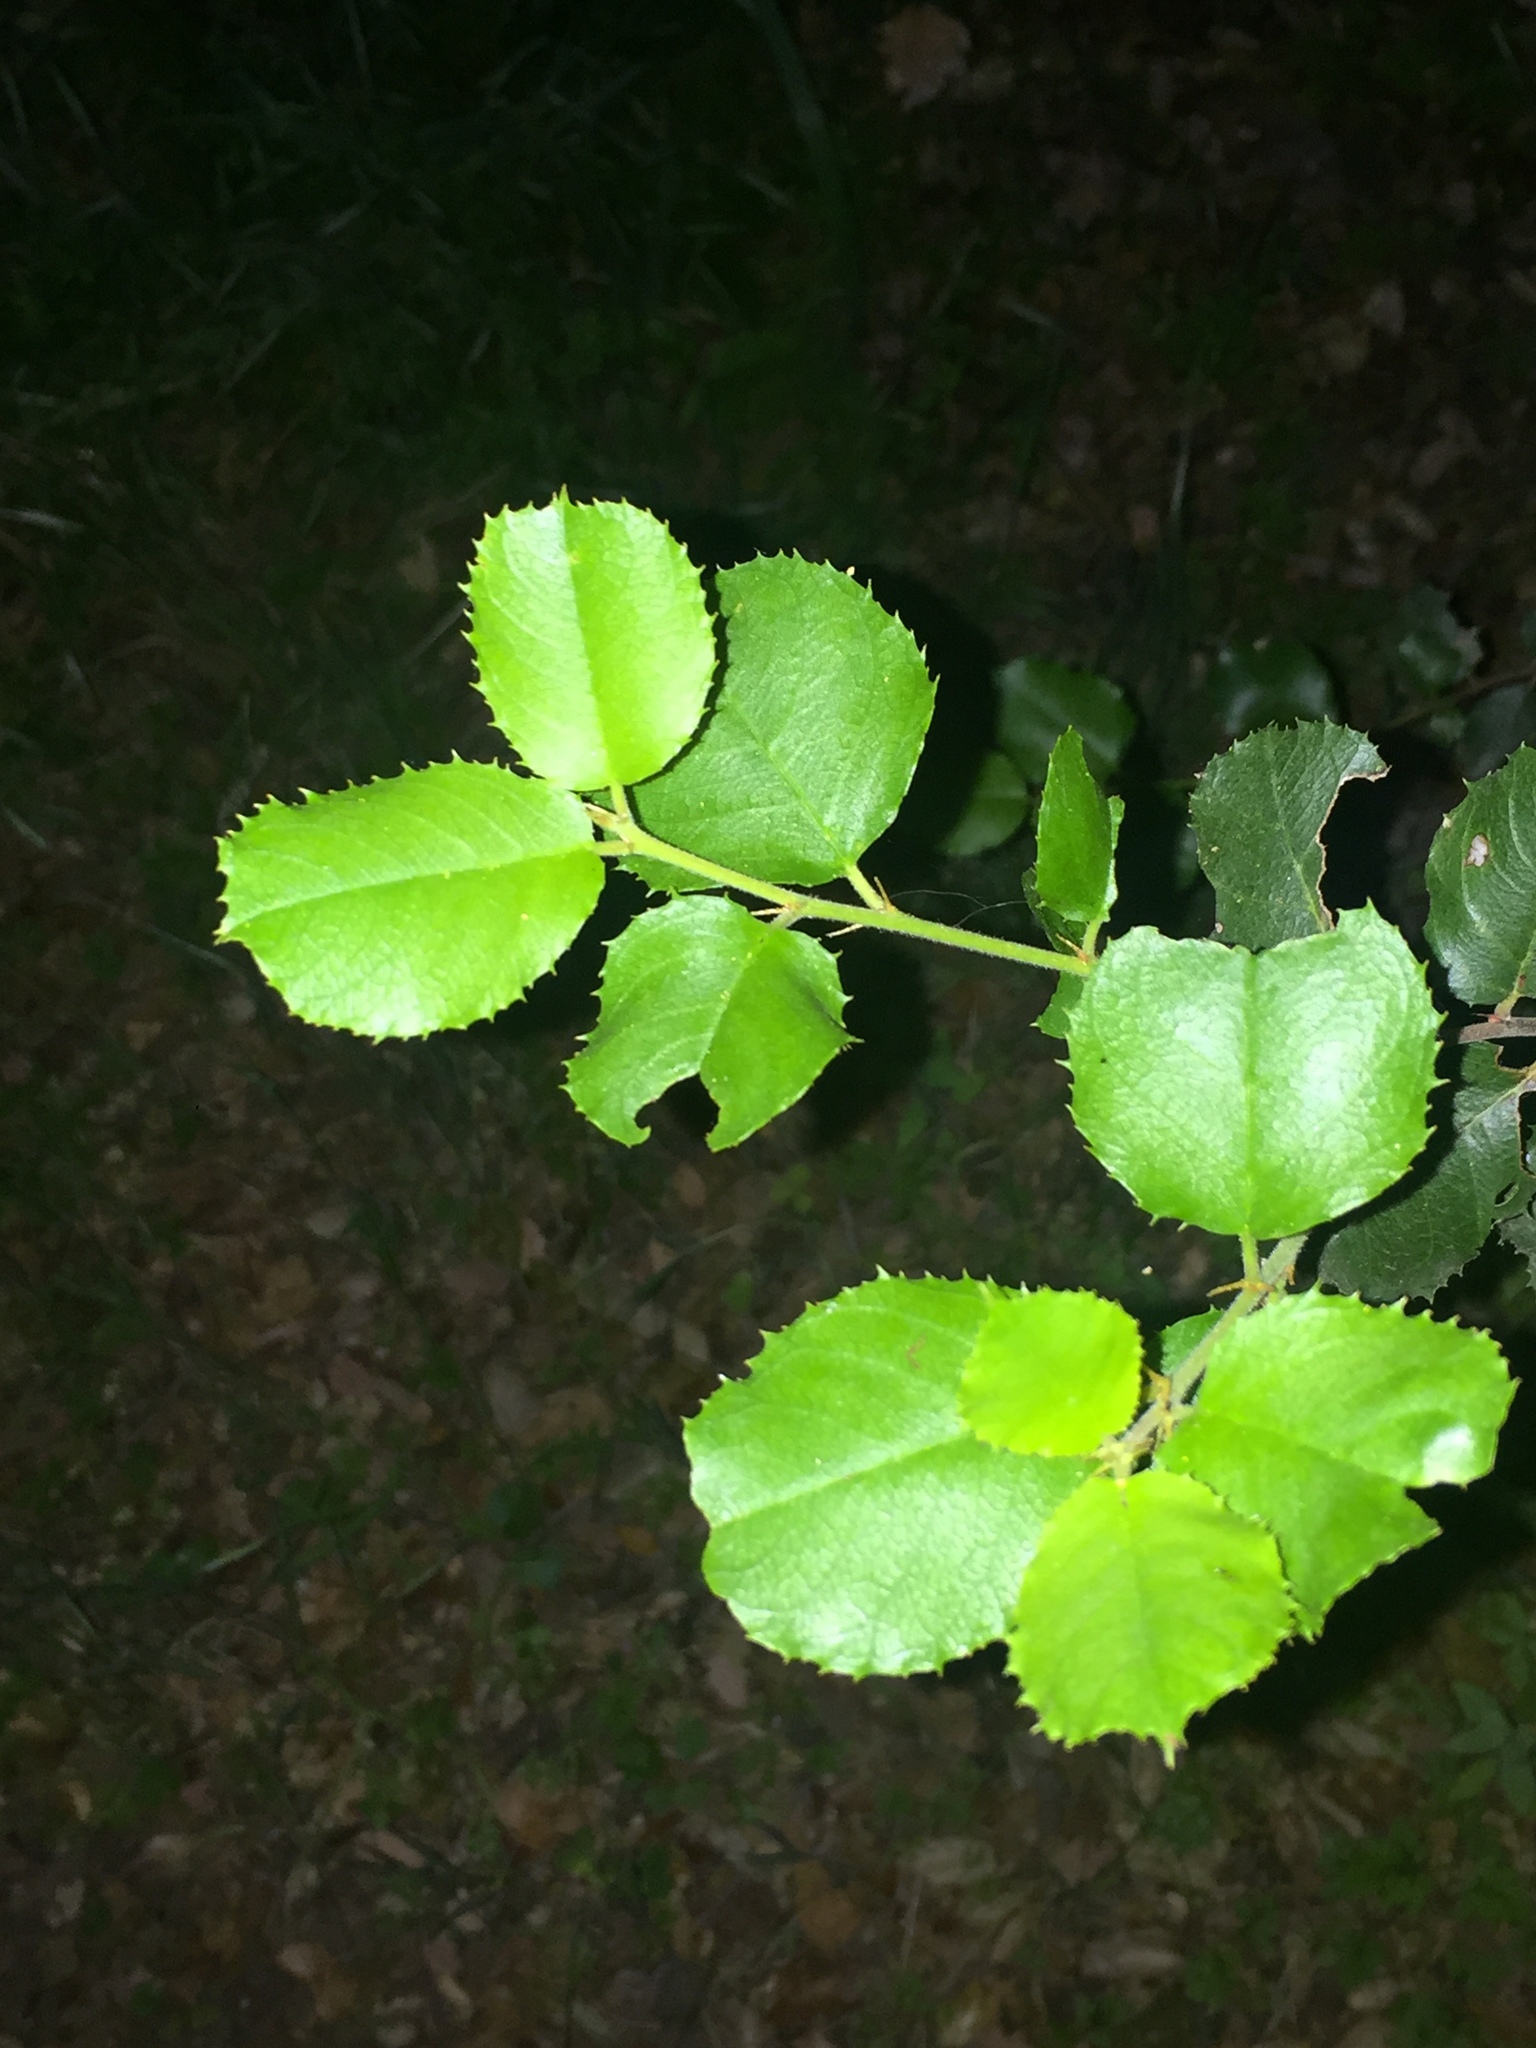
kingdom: Plantae
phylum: Tracheophyta
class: Magnoliopsida
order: Rosales
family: Rosaceae
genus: Prunus
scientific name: Prunus ilicifolia
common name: Hollyleaf cherry
